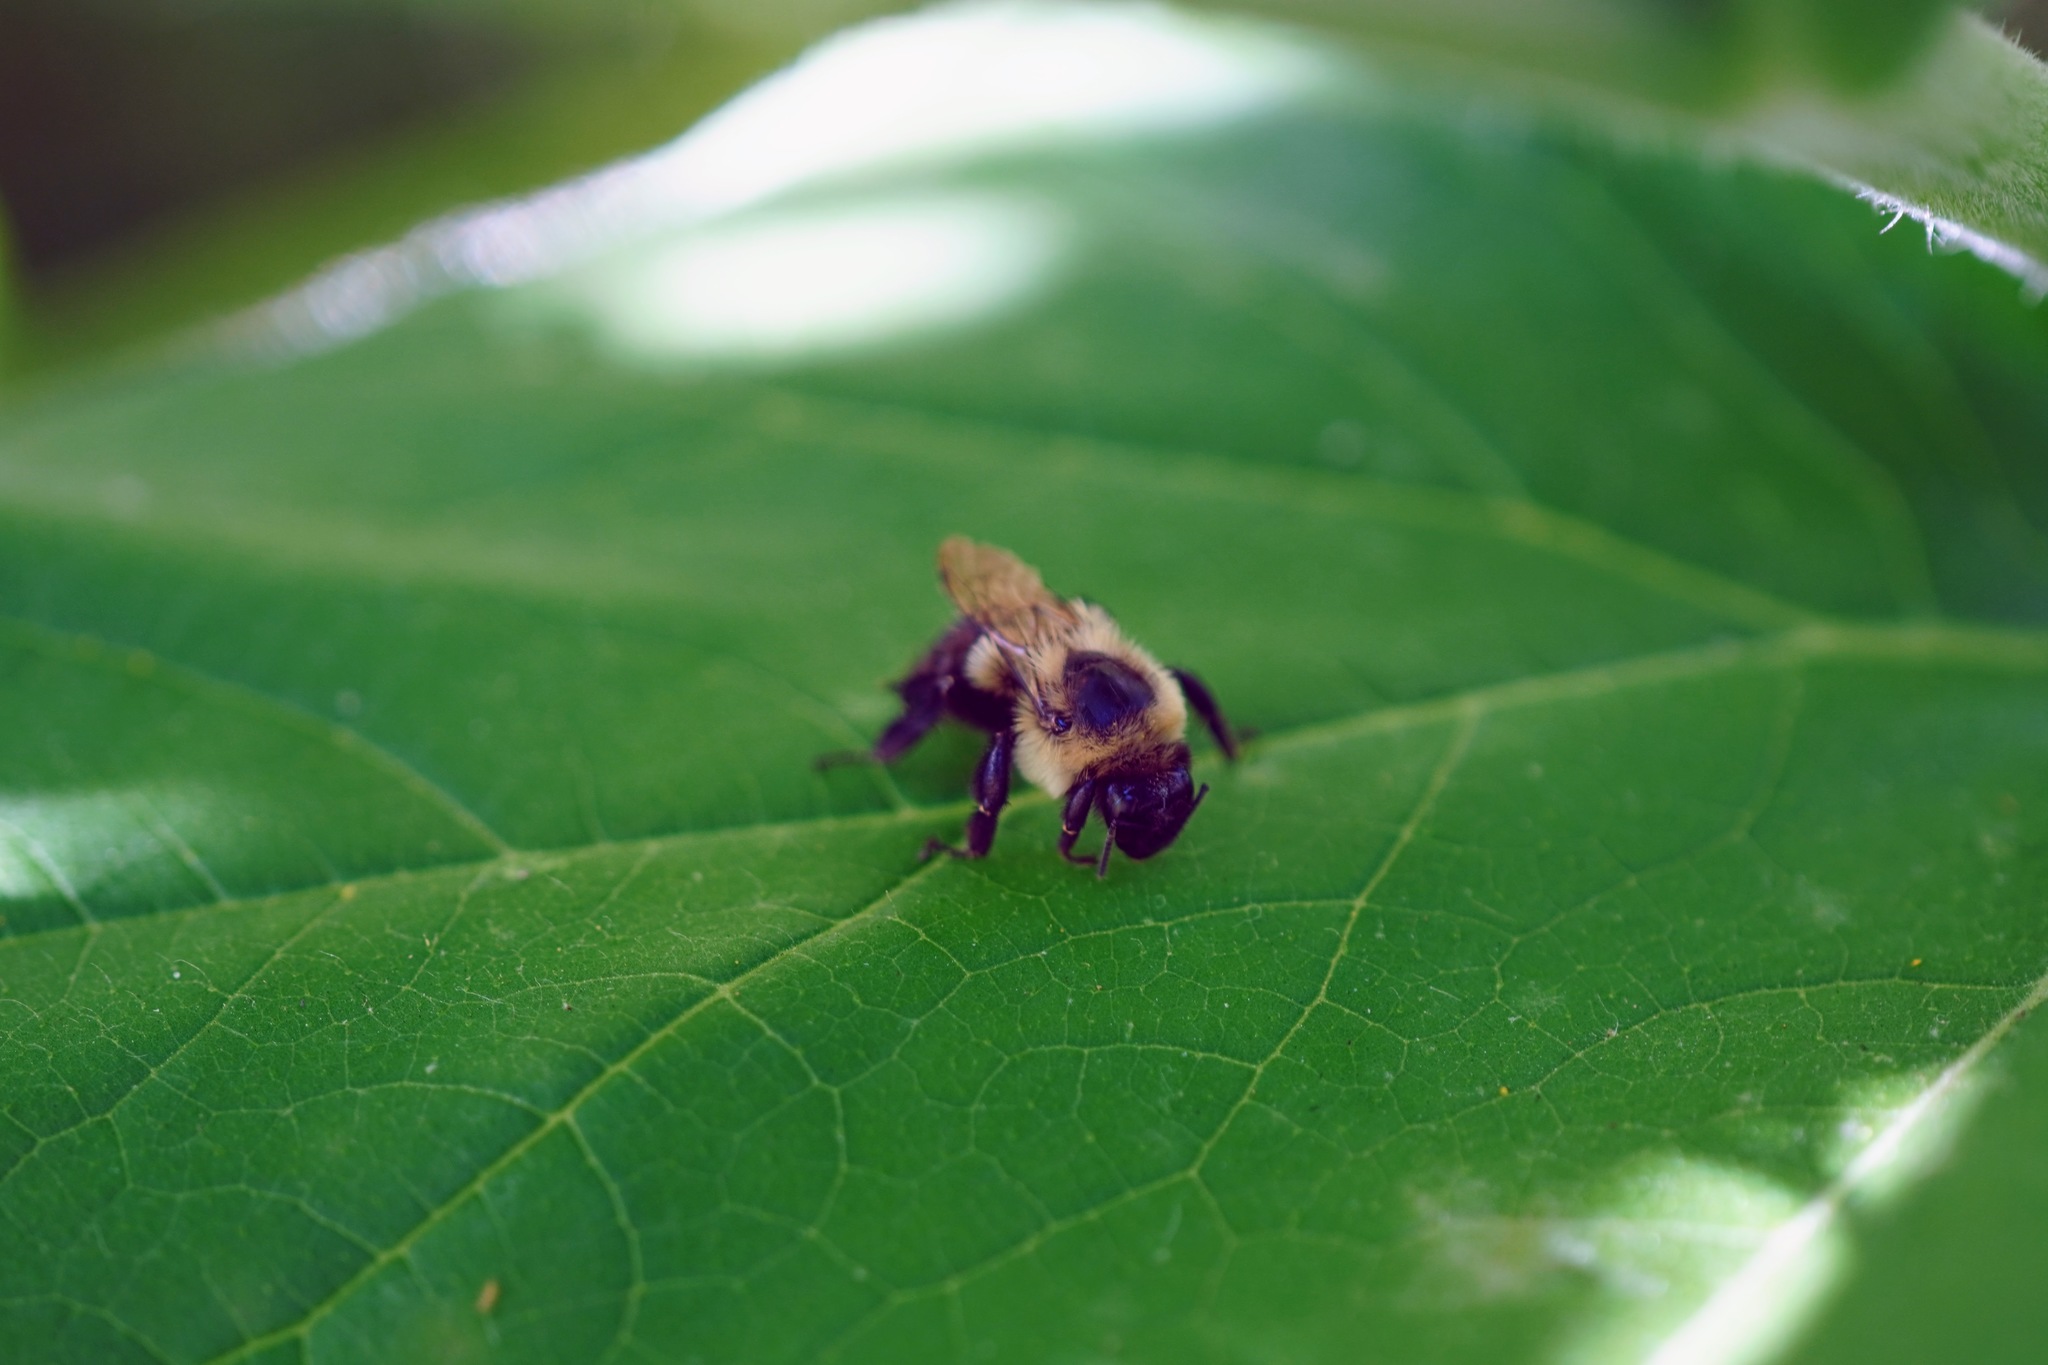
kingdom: Animalia
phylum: Arthropoda
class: Insecta
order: Hymenoptera
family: Apidae
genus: Bombus
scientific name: Bombus impatiens
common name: Common eastern bumble bee
